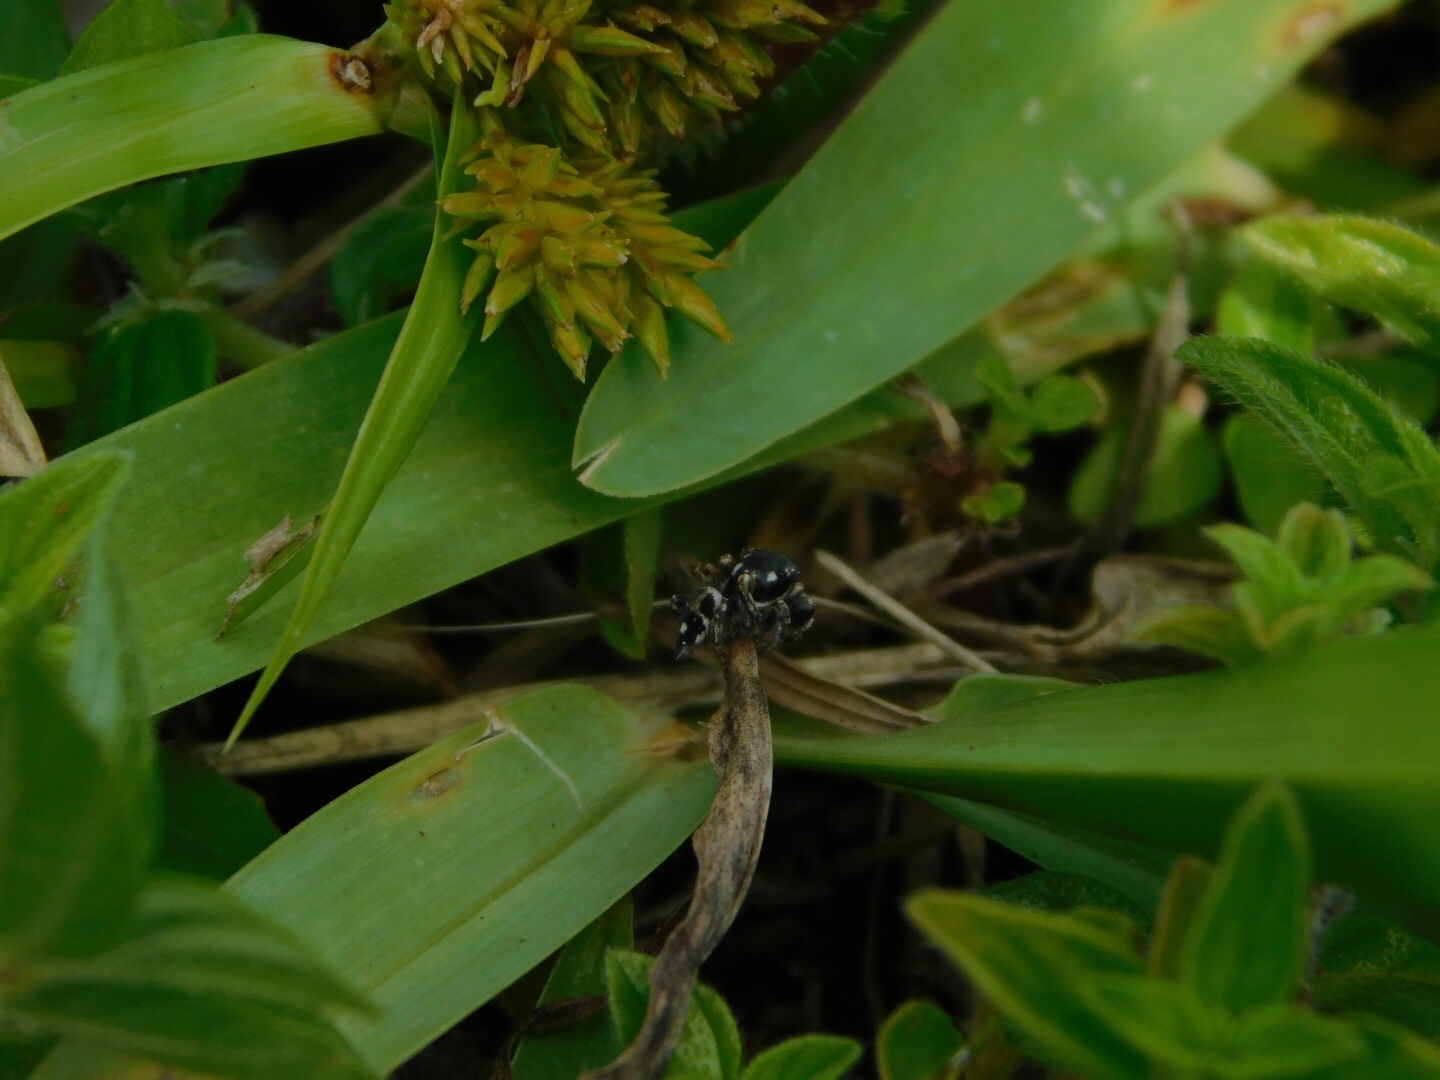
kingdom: Animalia
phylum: Arthropoda
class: Arachnida
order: Araneae
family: Salticidae
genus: Habronattus
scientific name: Habronattus brunneus
